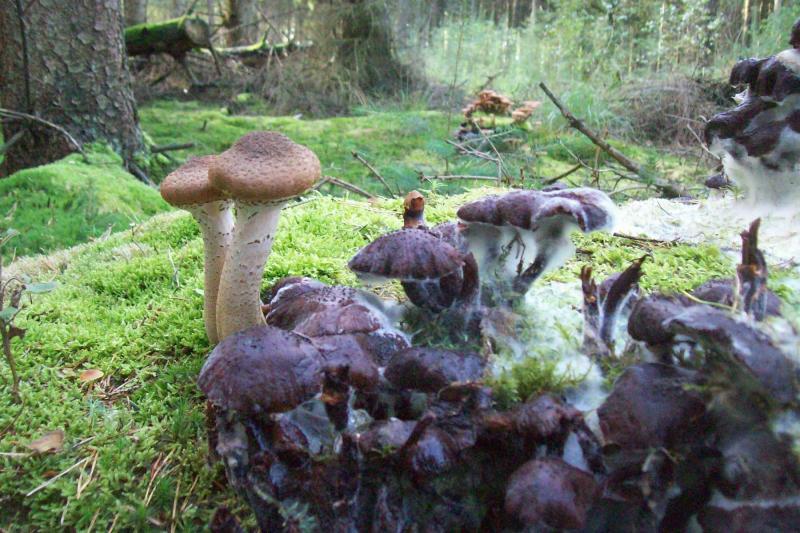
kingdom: Fungi
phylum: Basidiomycota
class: Agaricomycetes
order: Agaricales
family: Physalacriaceae
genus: Armillaria
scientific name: Armillaria mellea
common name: Honey fungus
